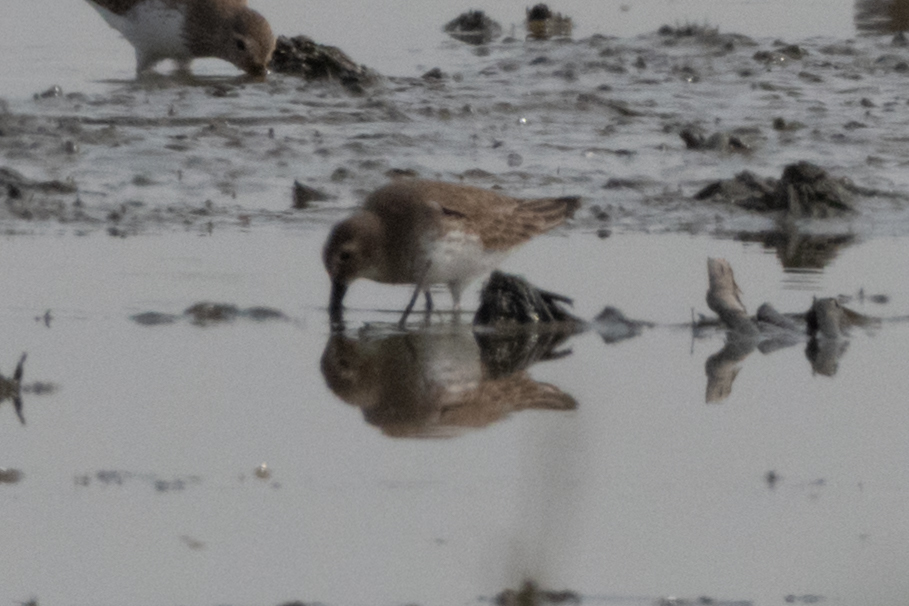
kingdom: Animalia
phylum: Chordata
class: Aves
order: Charadriiformes
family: Scolopacidae
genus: Calidris
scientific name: Calidris alpina
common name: Dunlin
